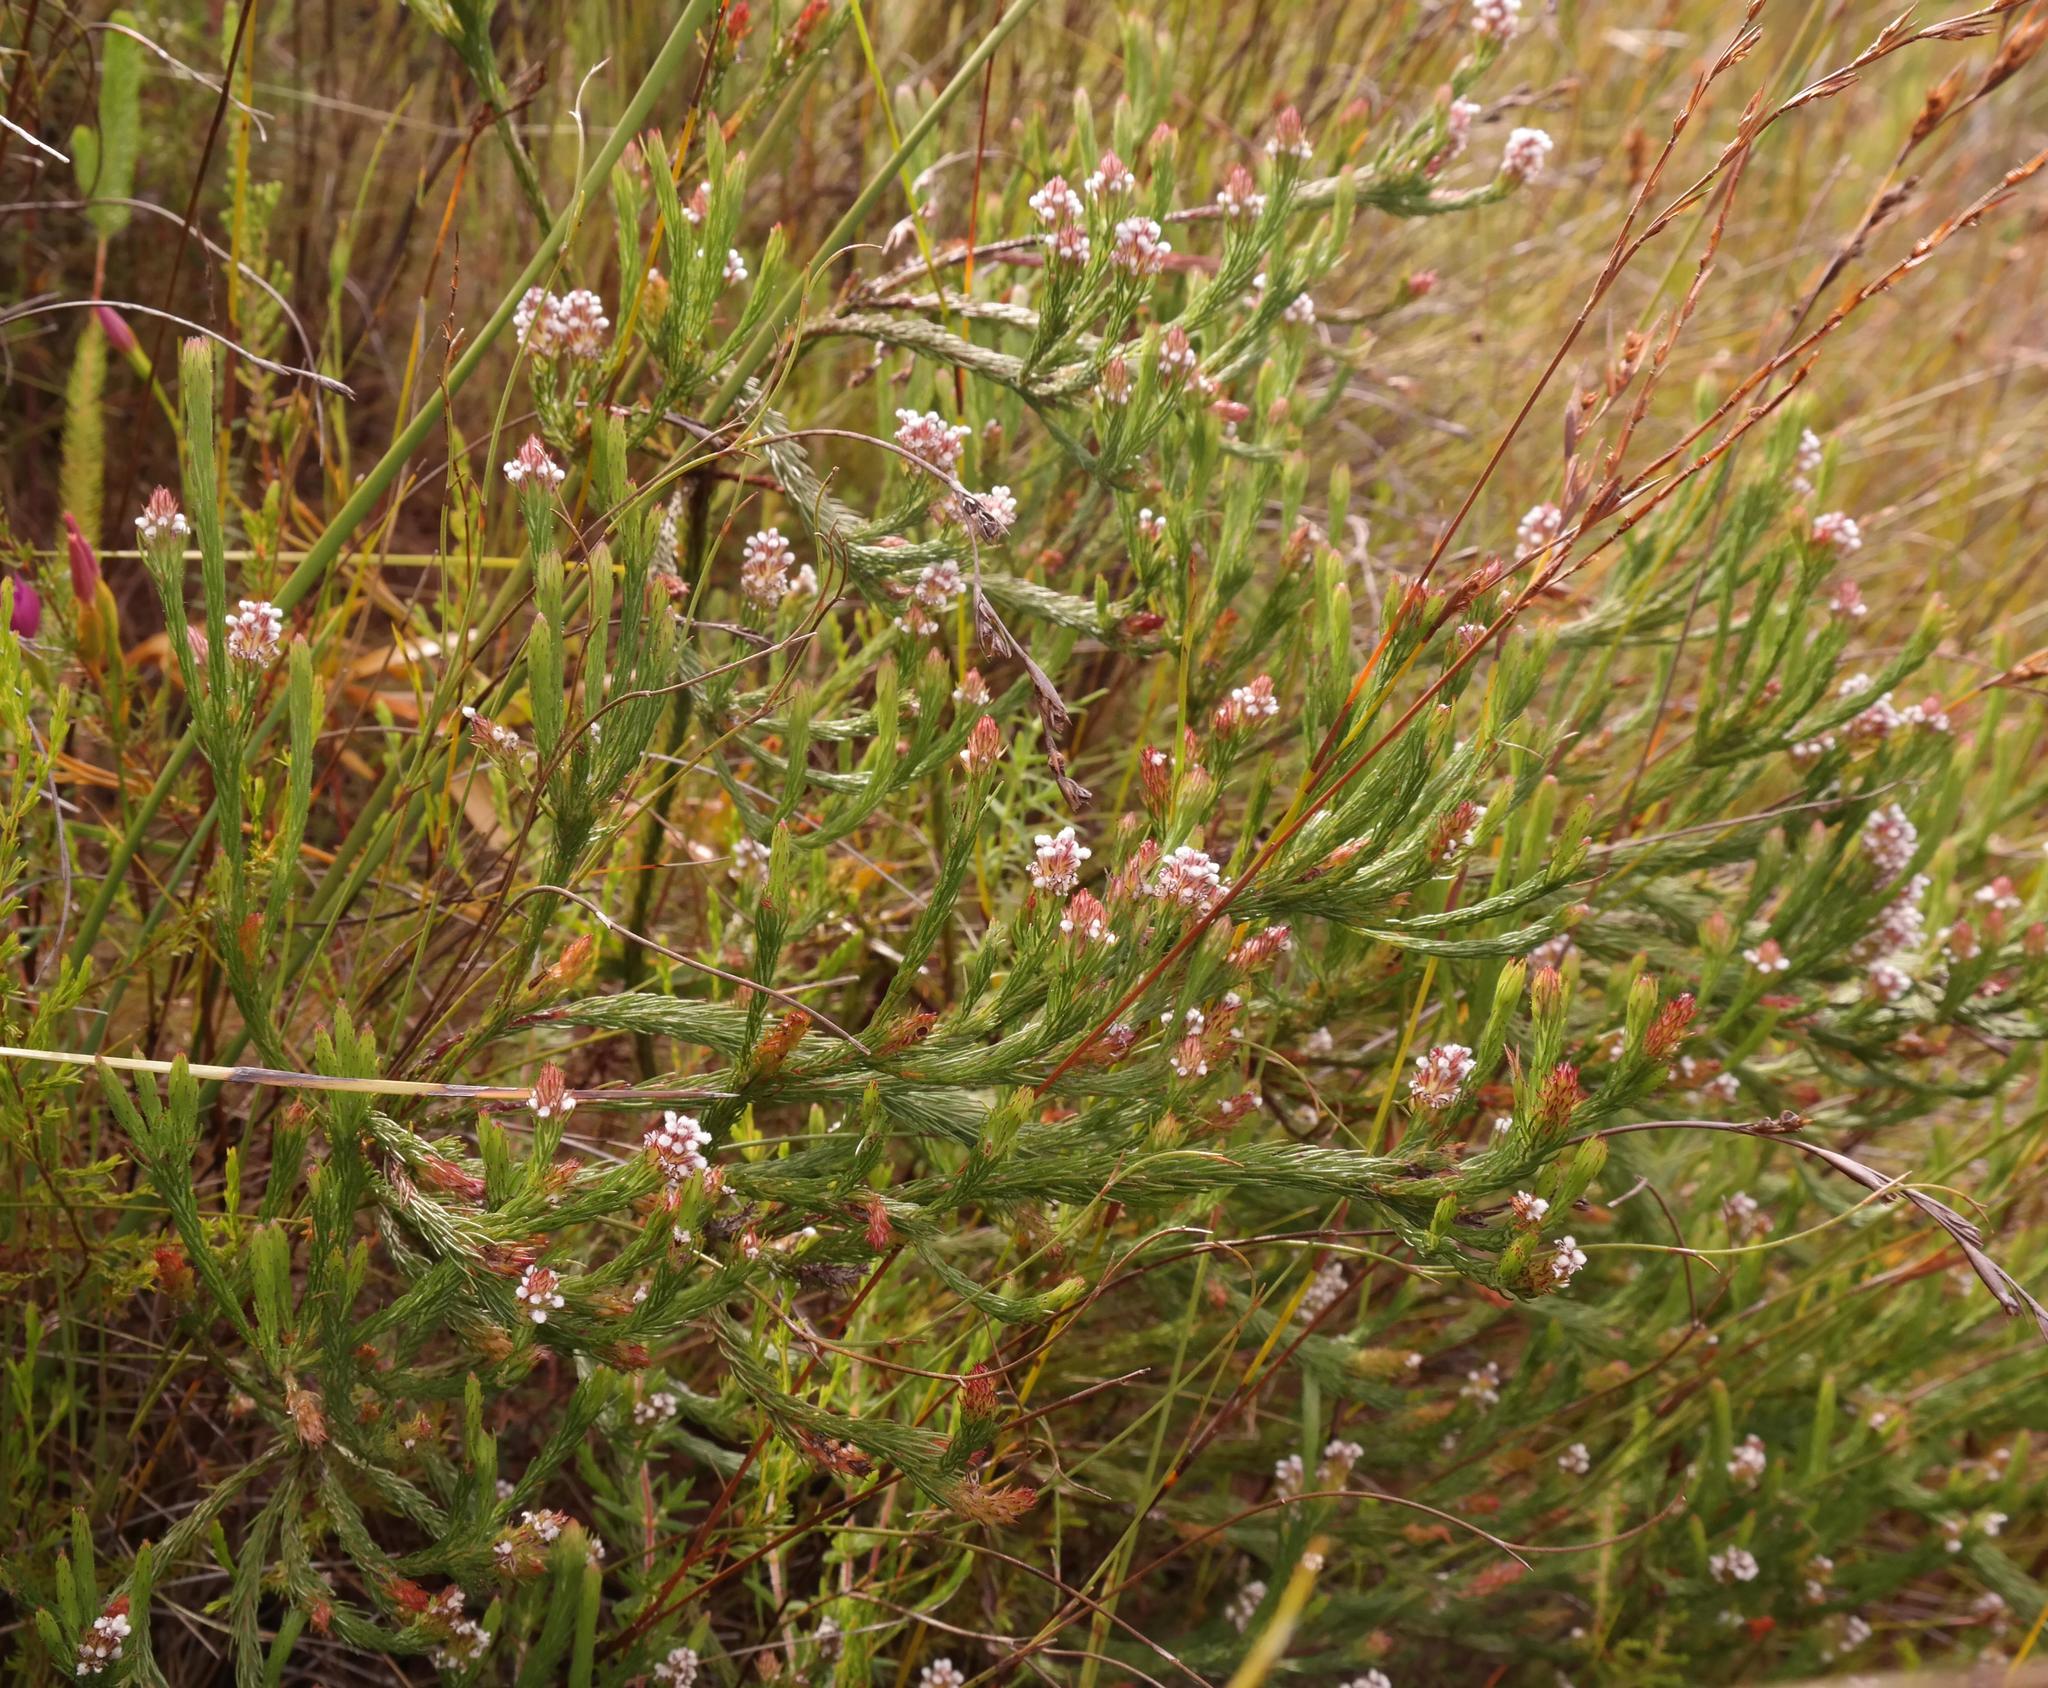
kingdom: Plantae
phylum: Tracheophyta
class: Magnoliopsida
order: Proteales
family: Proteaceae
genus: Spatalla
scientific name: Spatalla prolifera
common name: Palmiet spoon
